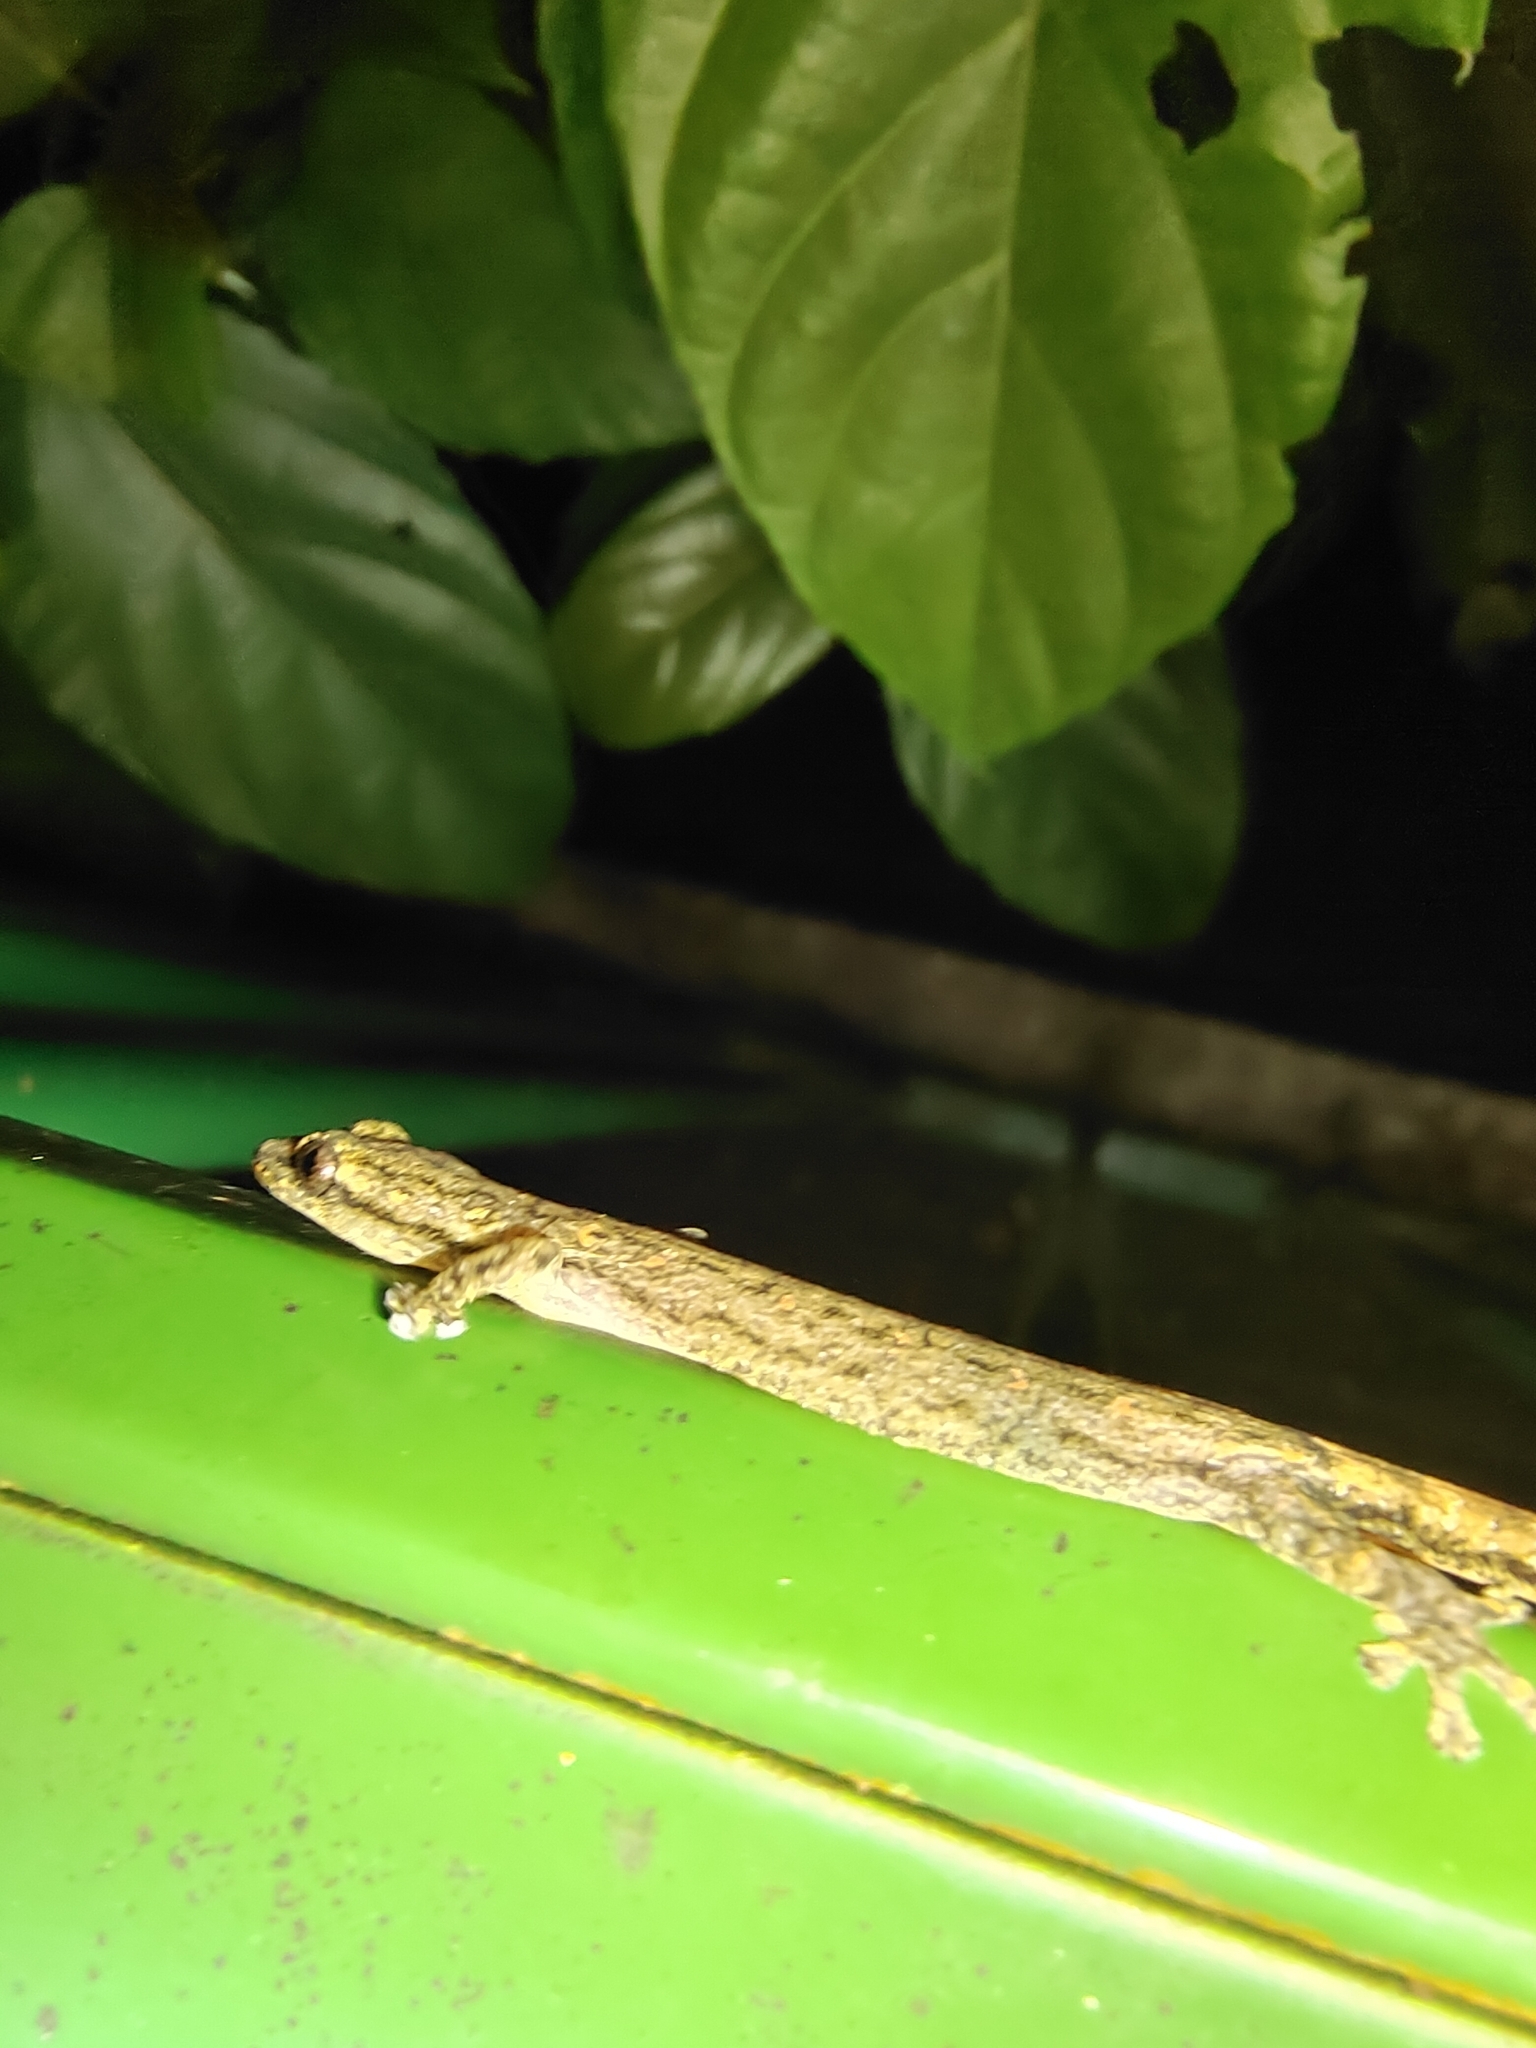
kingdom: Animalia
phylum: Chordata
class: Squamata
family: Gekkonidae
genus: Hemiphyllodactylus
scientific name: Hemiphyllodactylus typus
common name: Common dwarf gecko
